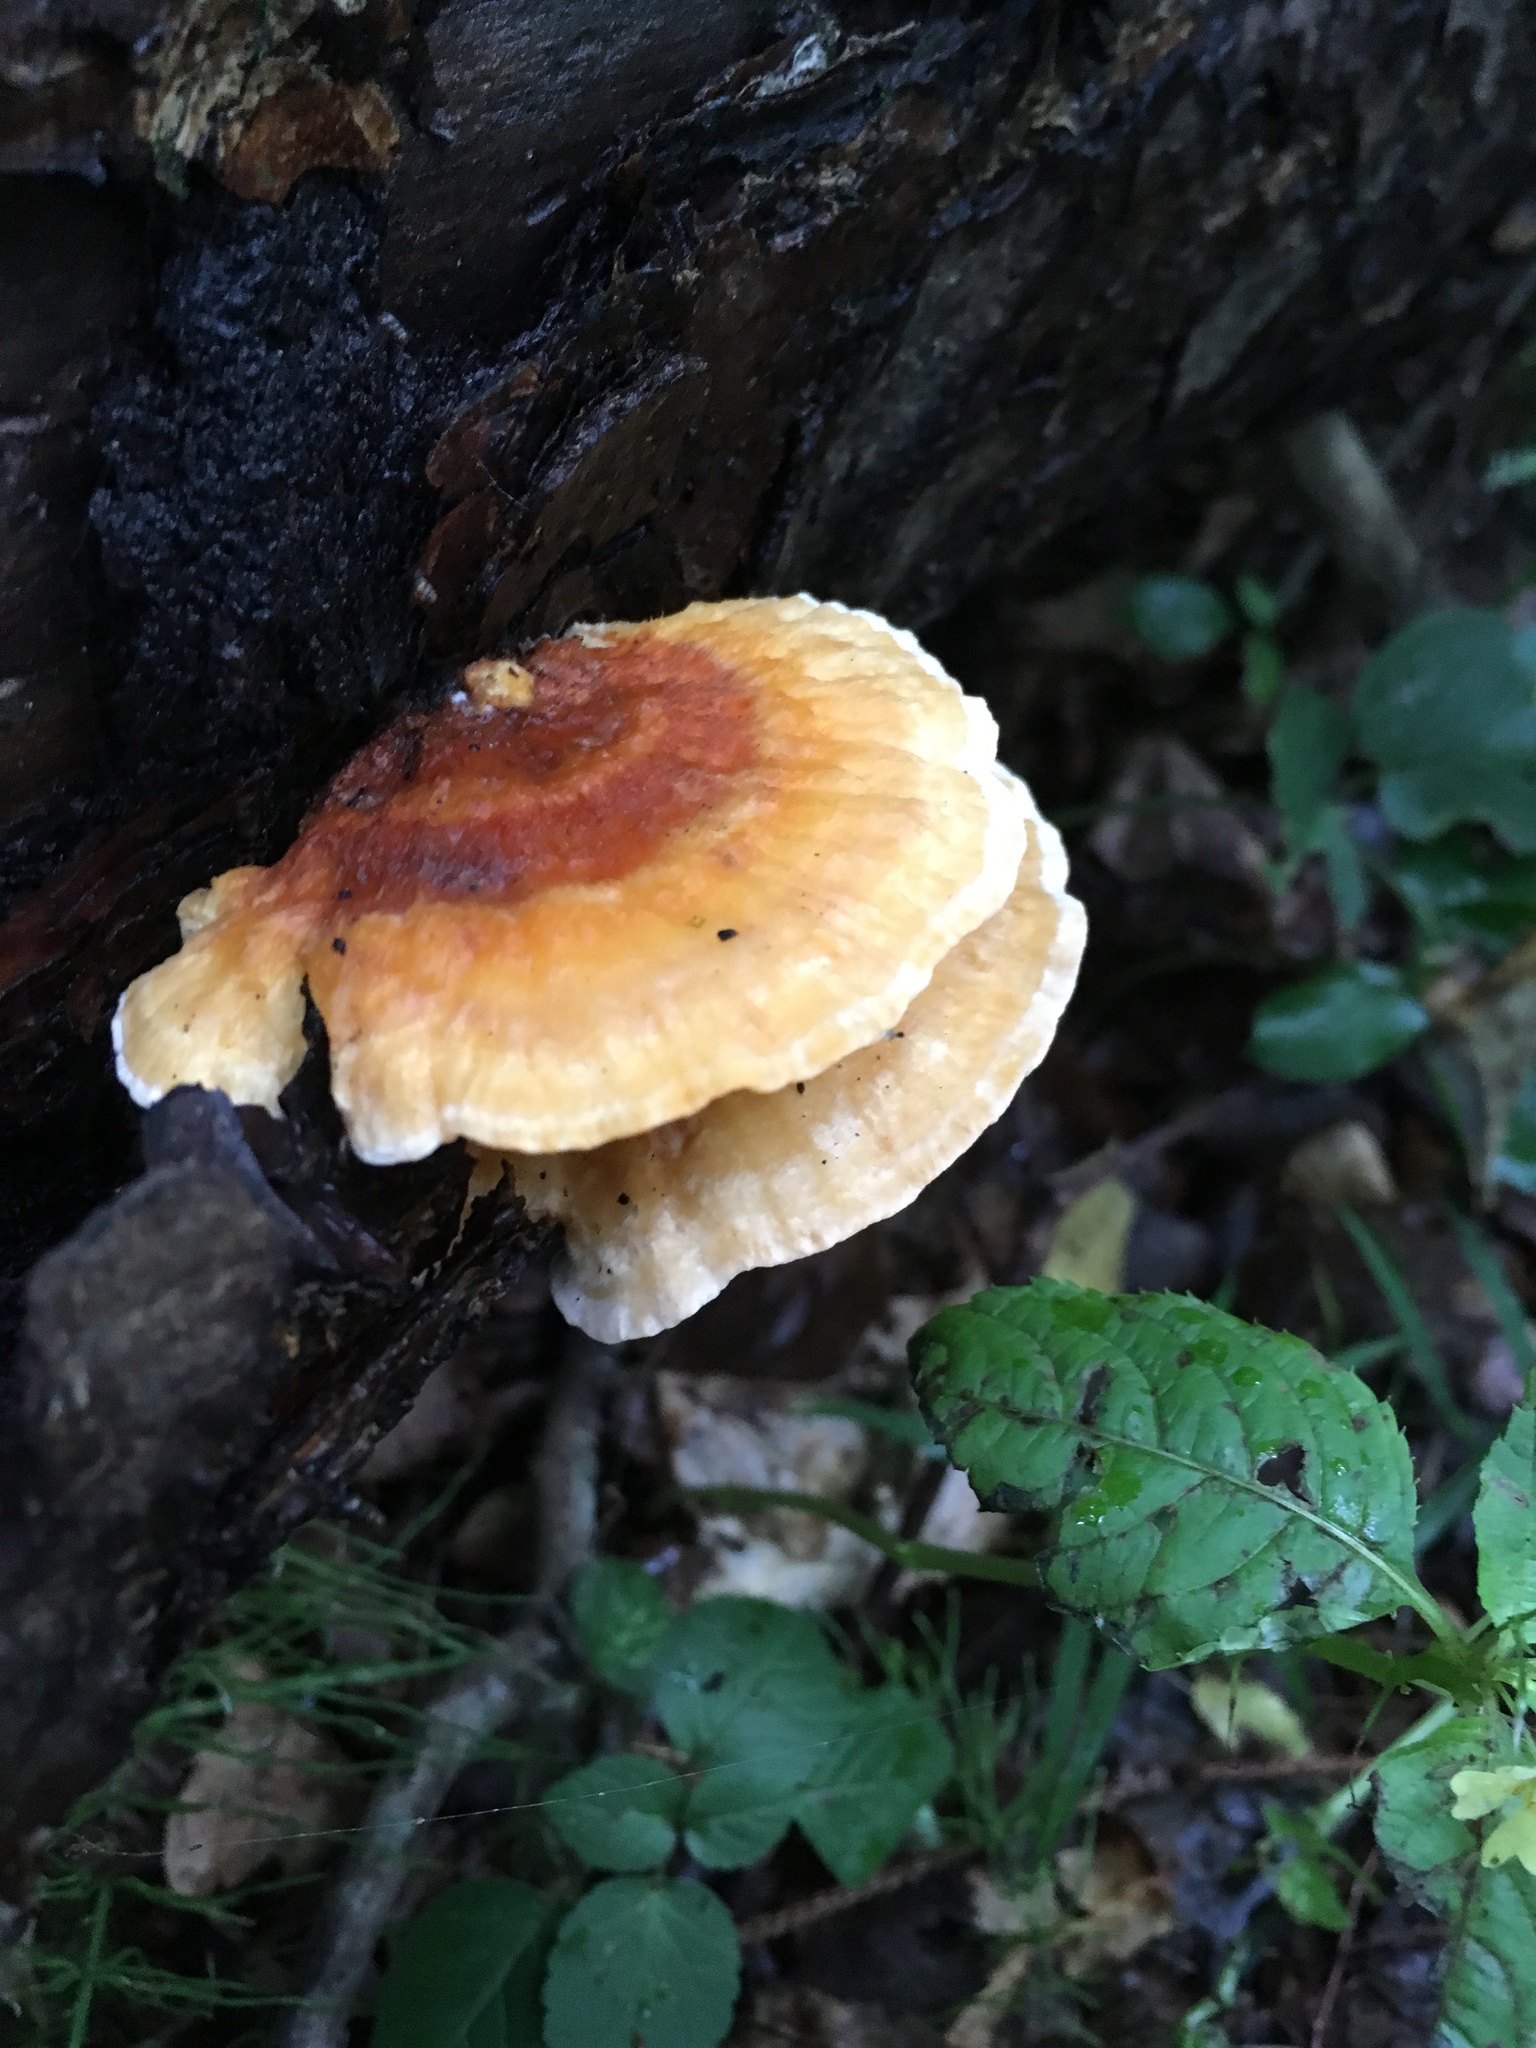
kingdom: Fungi
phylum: Basidiomycota
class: Agaricomycetes
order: Polyporales
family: Pycnoporellaceae
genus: Pycnoporellus
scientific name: Pycnoporellus fulgens
